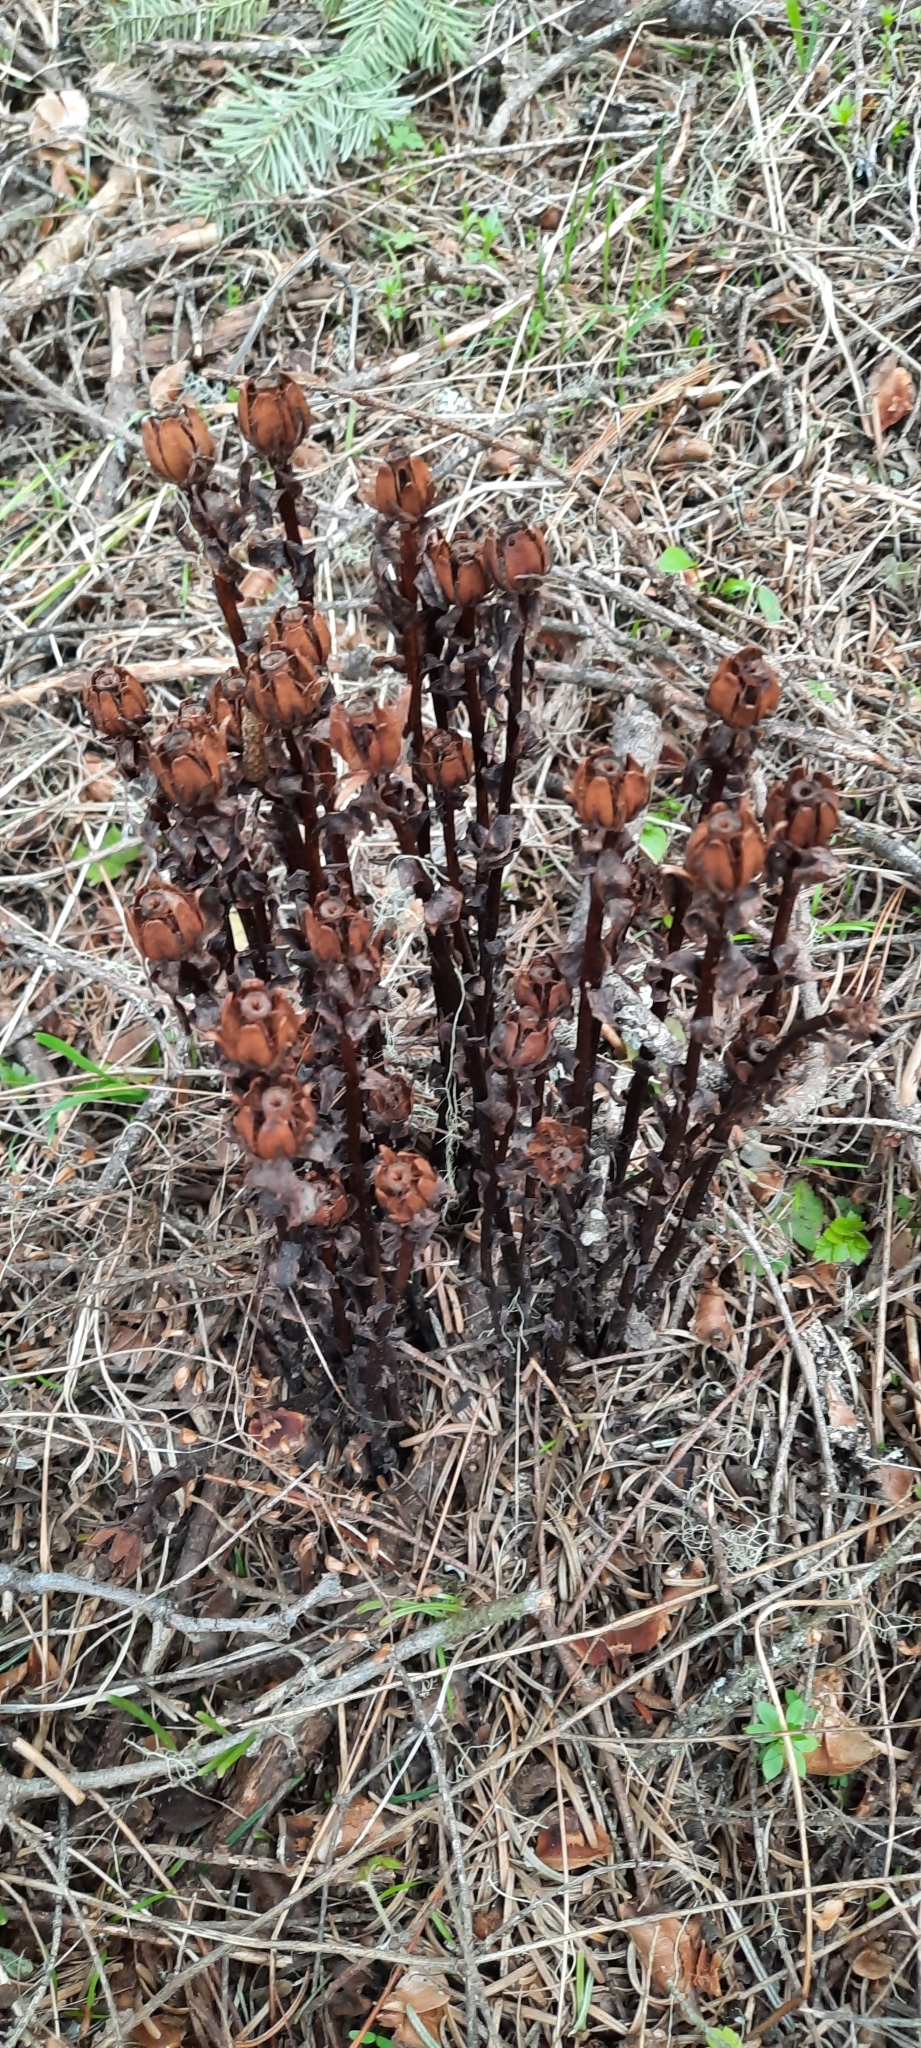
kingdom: Plantae
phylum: Tracheophyta
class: Magnoliopsida
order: Ericales
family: Ericaceae
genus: Monotropa
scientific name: Monotropa uniflora
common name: Convulsion root
